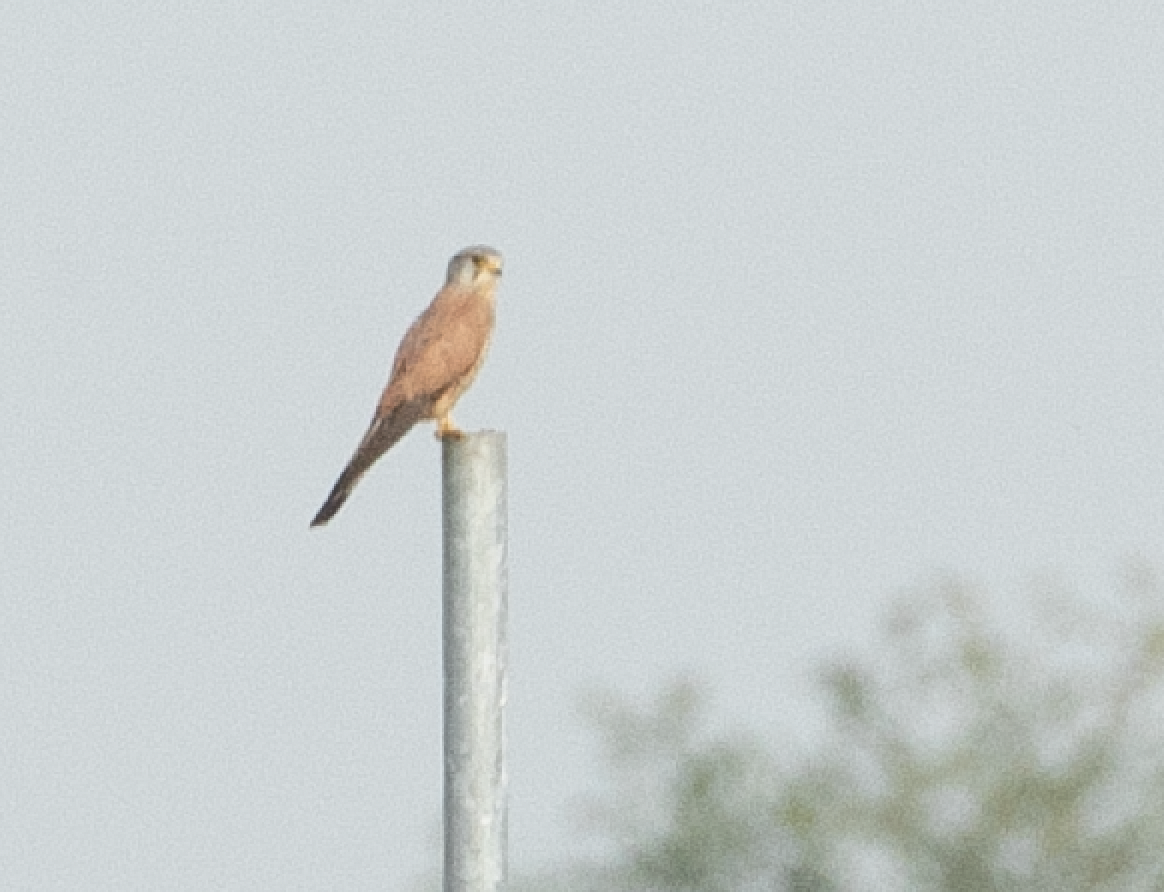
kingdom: Animalia
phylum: Chordata
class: Aves
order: Falconiformes
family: Falconidae
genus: Falco
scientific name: Falco tinnunculus
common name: Common kestrel
